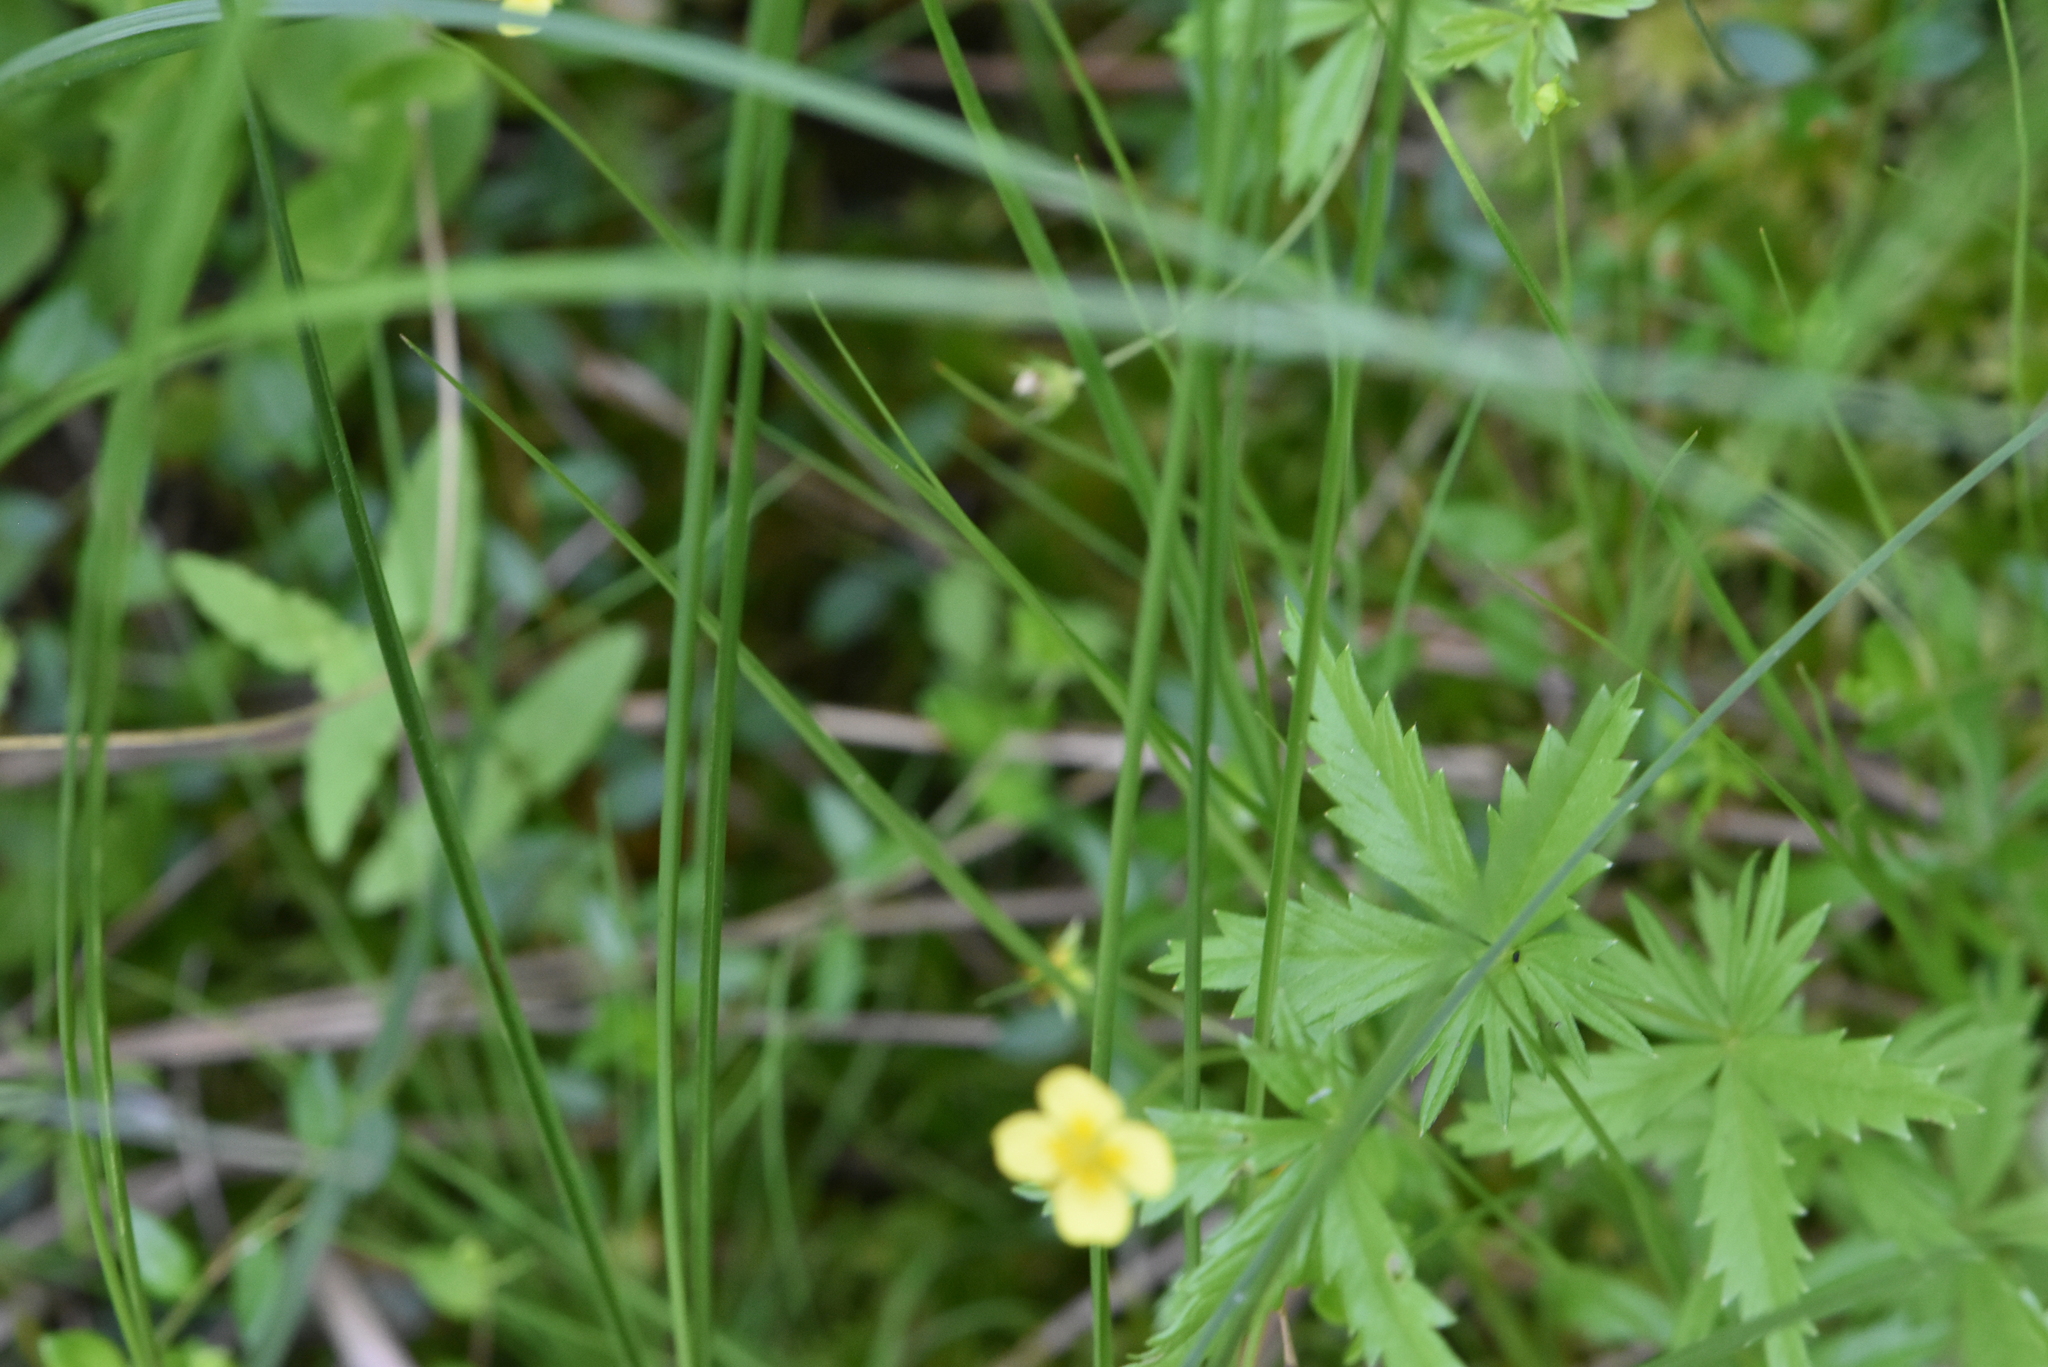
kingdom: Plantae
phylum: Tracheophyta
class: Magnoliopsida
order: Rosales
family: Rosaceae
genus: Potentilla
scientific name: Potentilla erecta
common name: Tormentil
